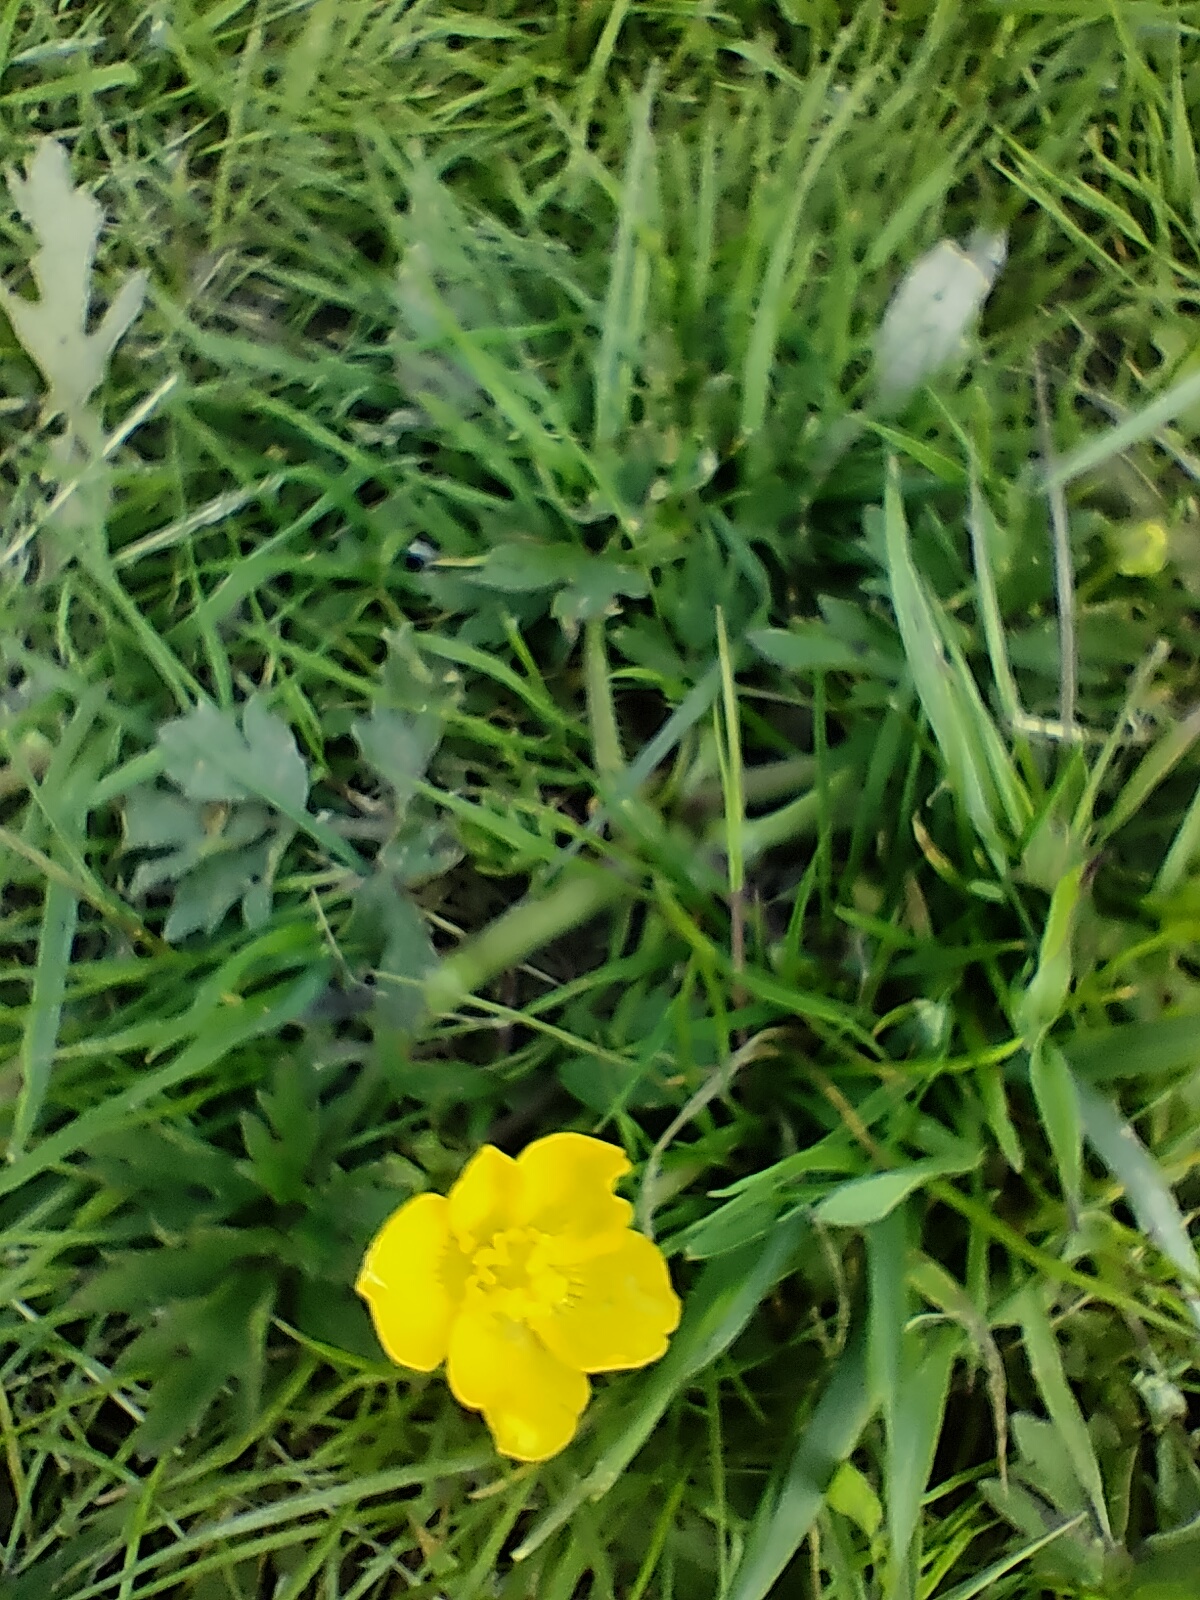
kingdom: Plantae
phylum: Tracheophyta
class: Magnoliopsida
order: Ranunculales
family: Ranunculaceae
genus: Ranunculus
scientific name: Ranunculus repens
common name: Creeping buttercup
